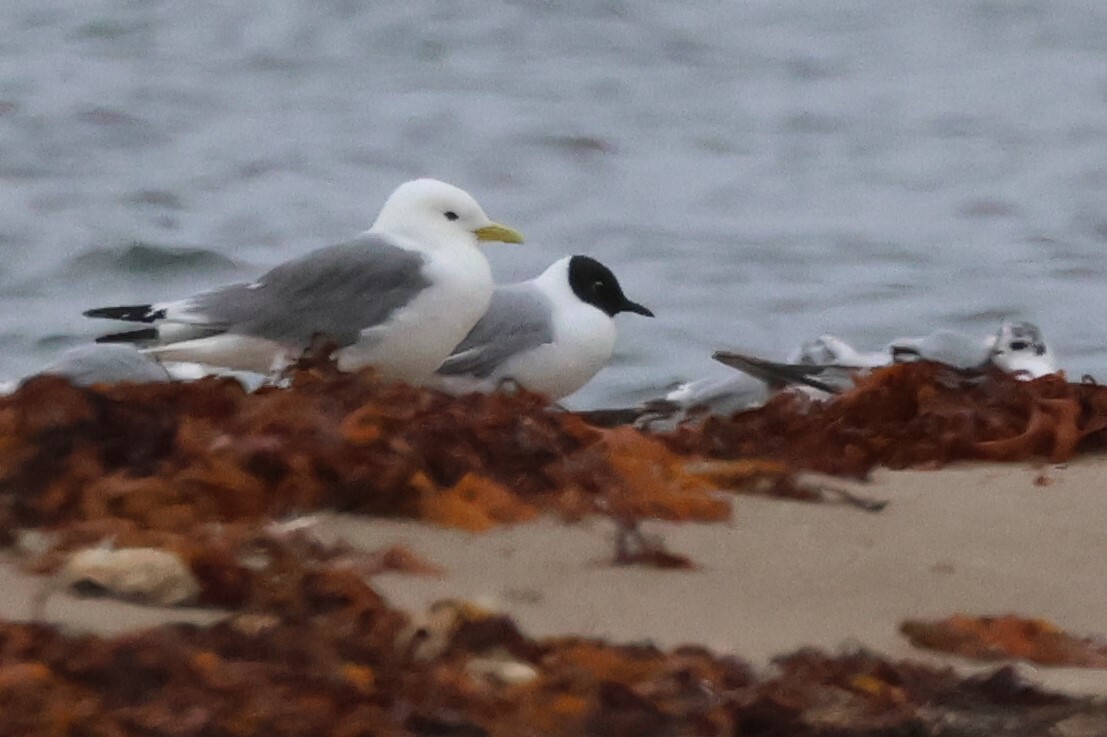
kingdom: Animalia
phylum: Chordata
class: Aves
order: Charadriiformes
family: Laridae
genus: Chroicocephalus
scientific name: Chroicocephalus philadelphia
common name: Bonaparte's gull
